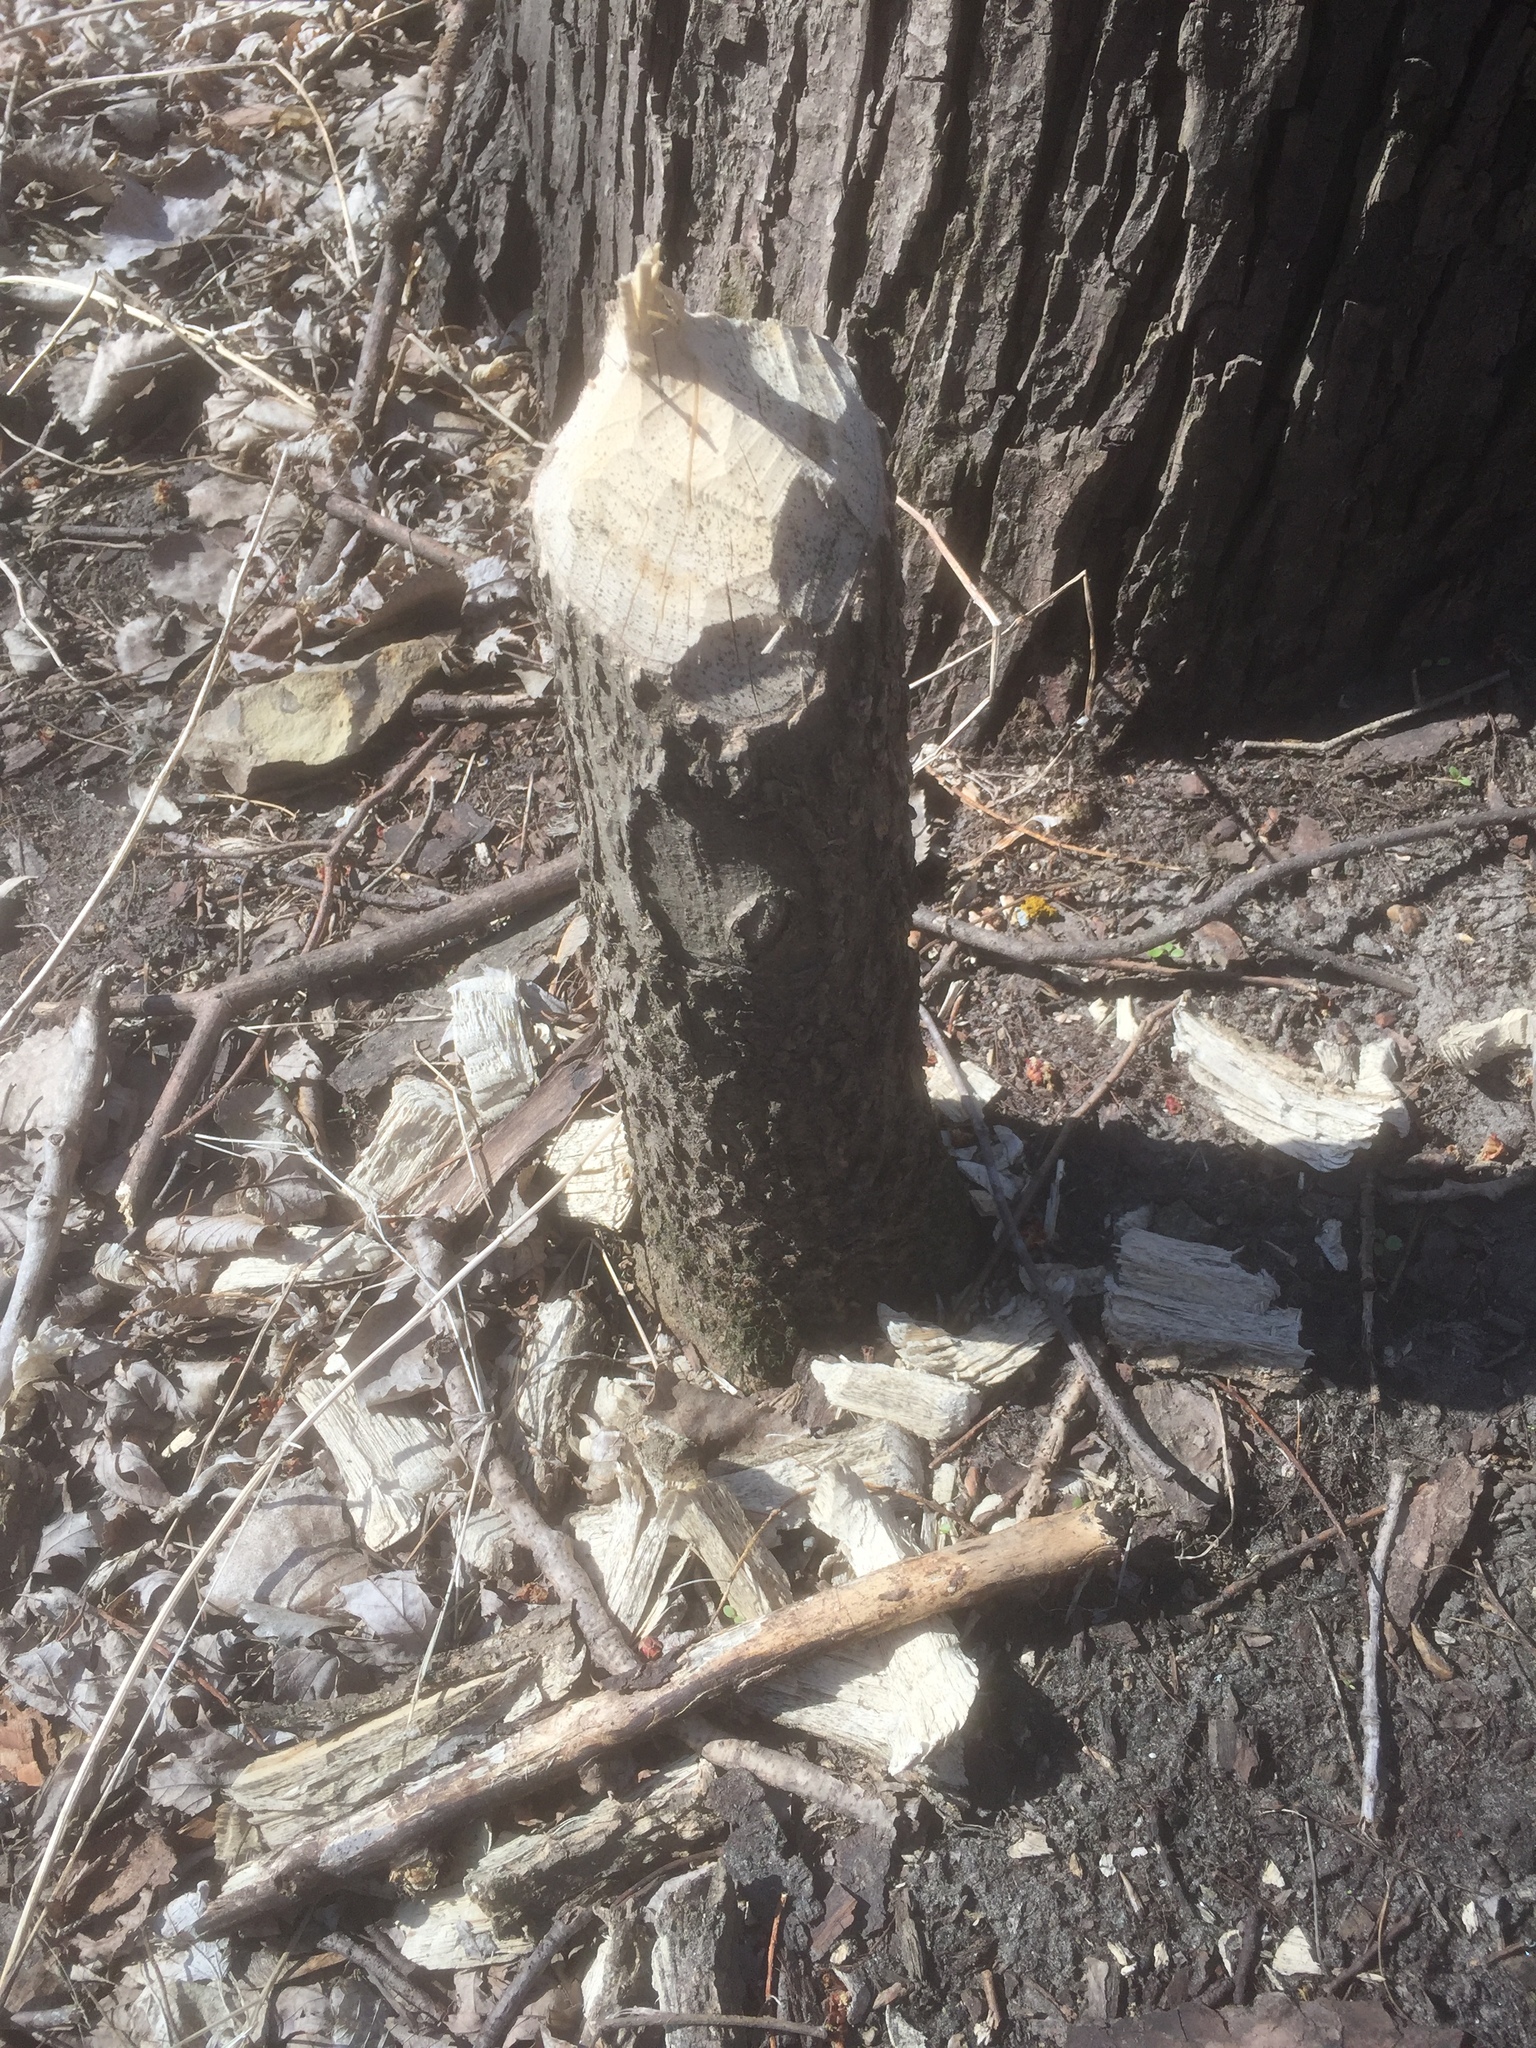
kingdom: Animalia
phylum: Chordata
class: Mammalia
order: Rodentia
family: Castoridae
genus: Castor
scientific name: Castor canadensis
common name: American beaver
